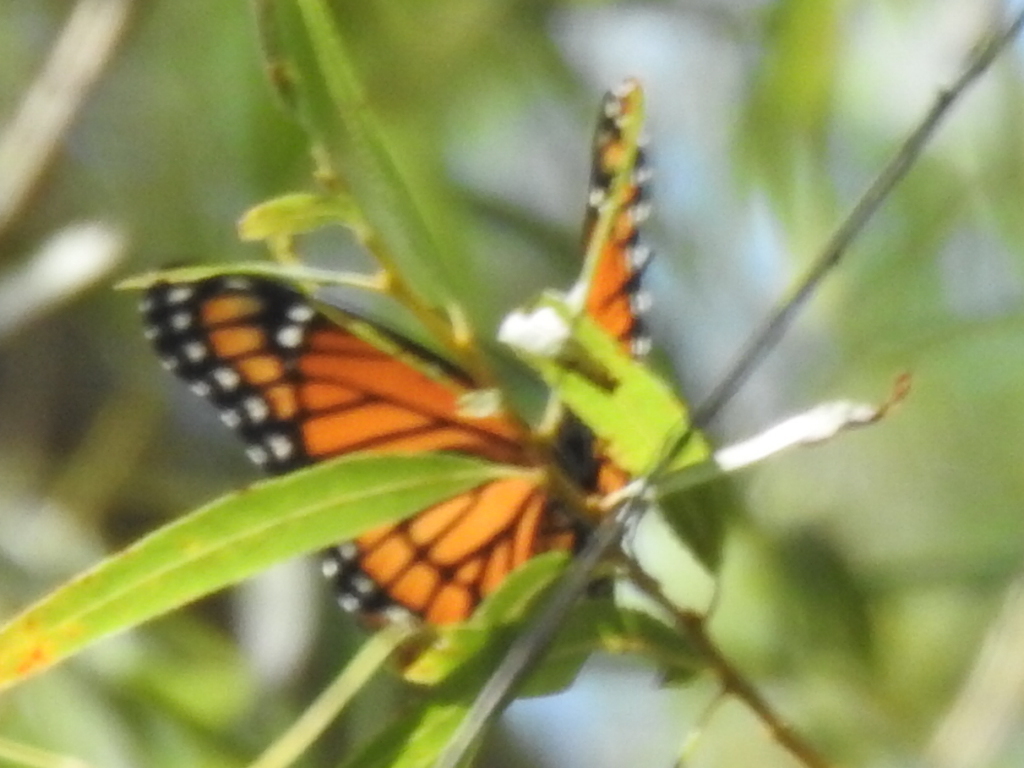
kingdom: Animalia
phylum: Arthropoda
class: Insecta
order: Lepidoptera
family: Nymphalidae
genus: Limenitis
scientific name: Limenitis archippus
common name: Viceroy
